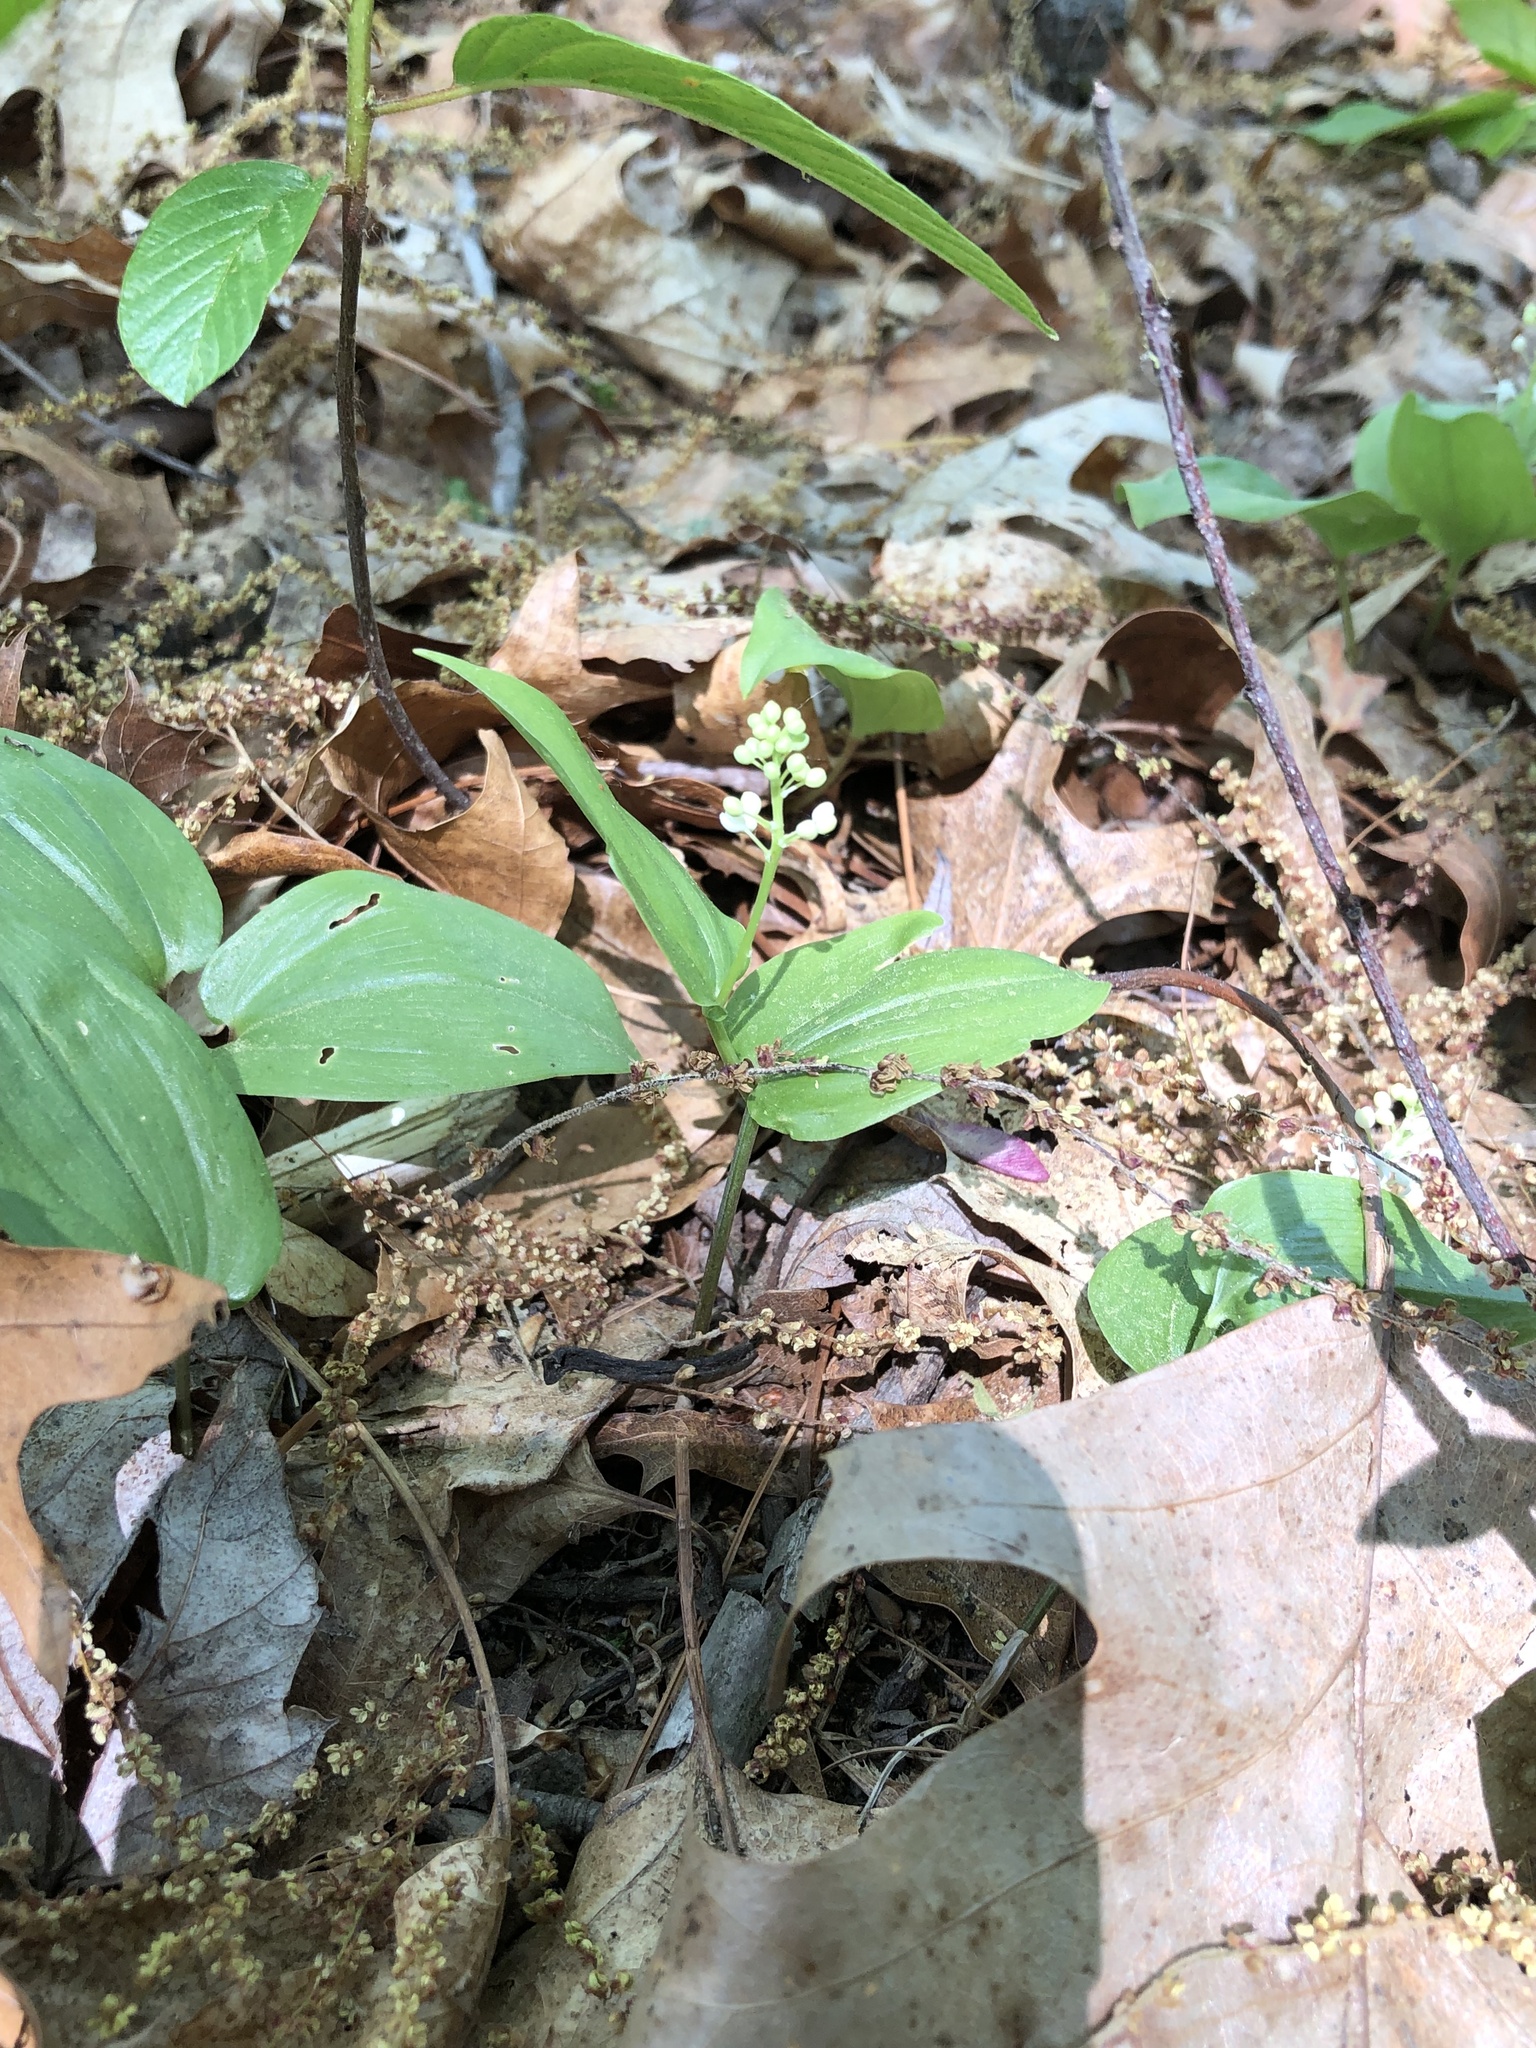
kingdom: Plantae
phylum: Tracheophyta
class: Liliopsida
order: Asparagales
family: Asparagaceae
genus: Maianthemum
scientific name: Maianthemum canadense
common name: False lily-of-the-valley
